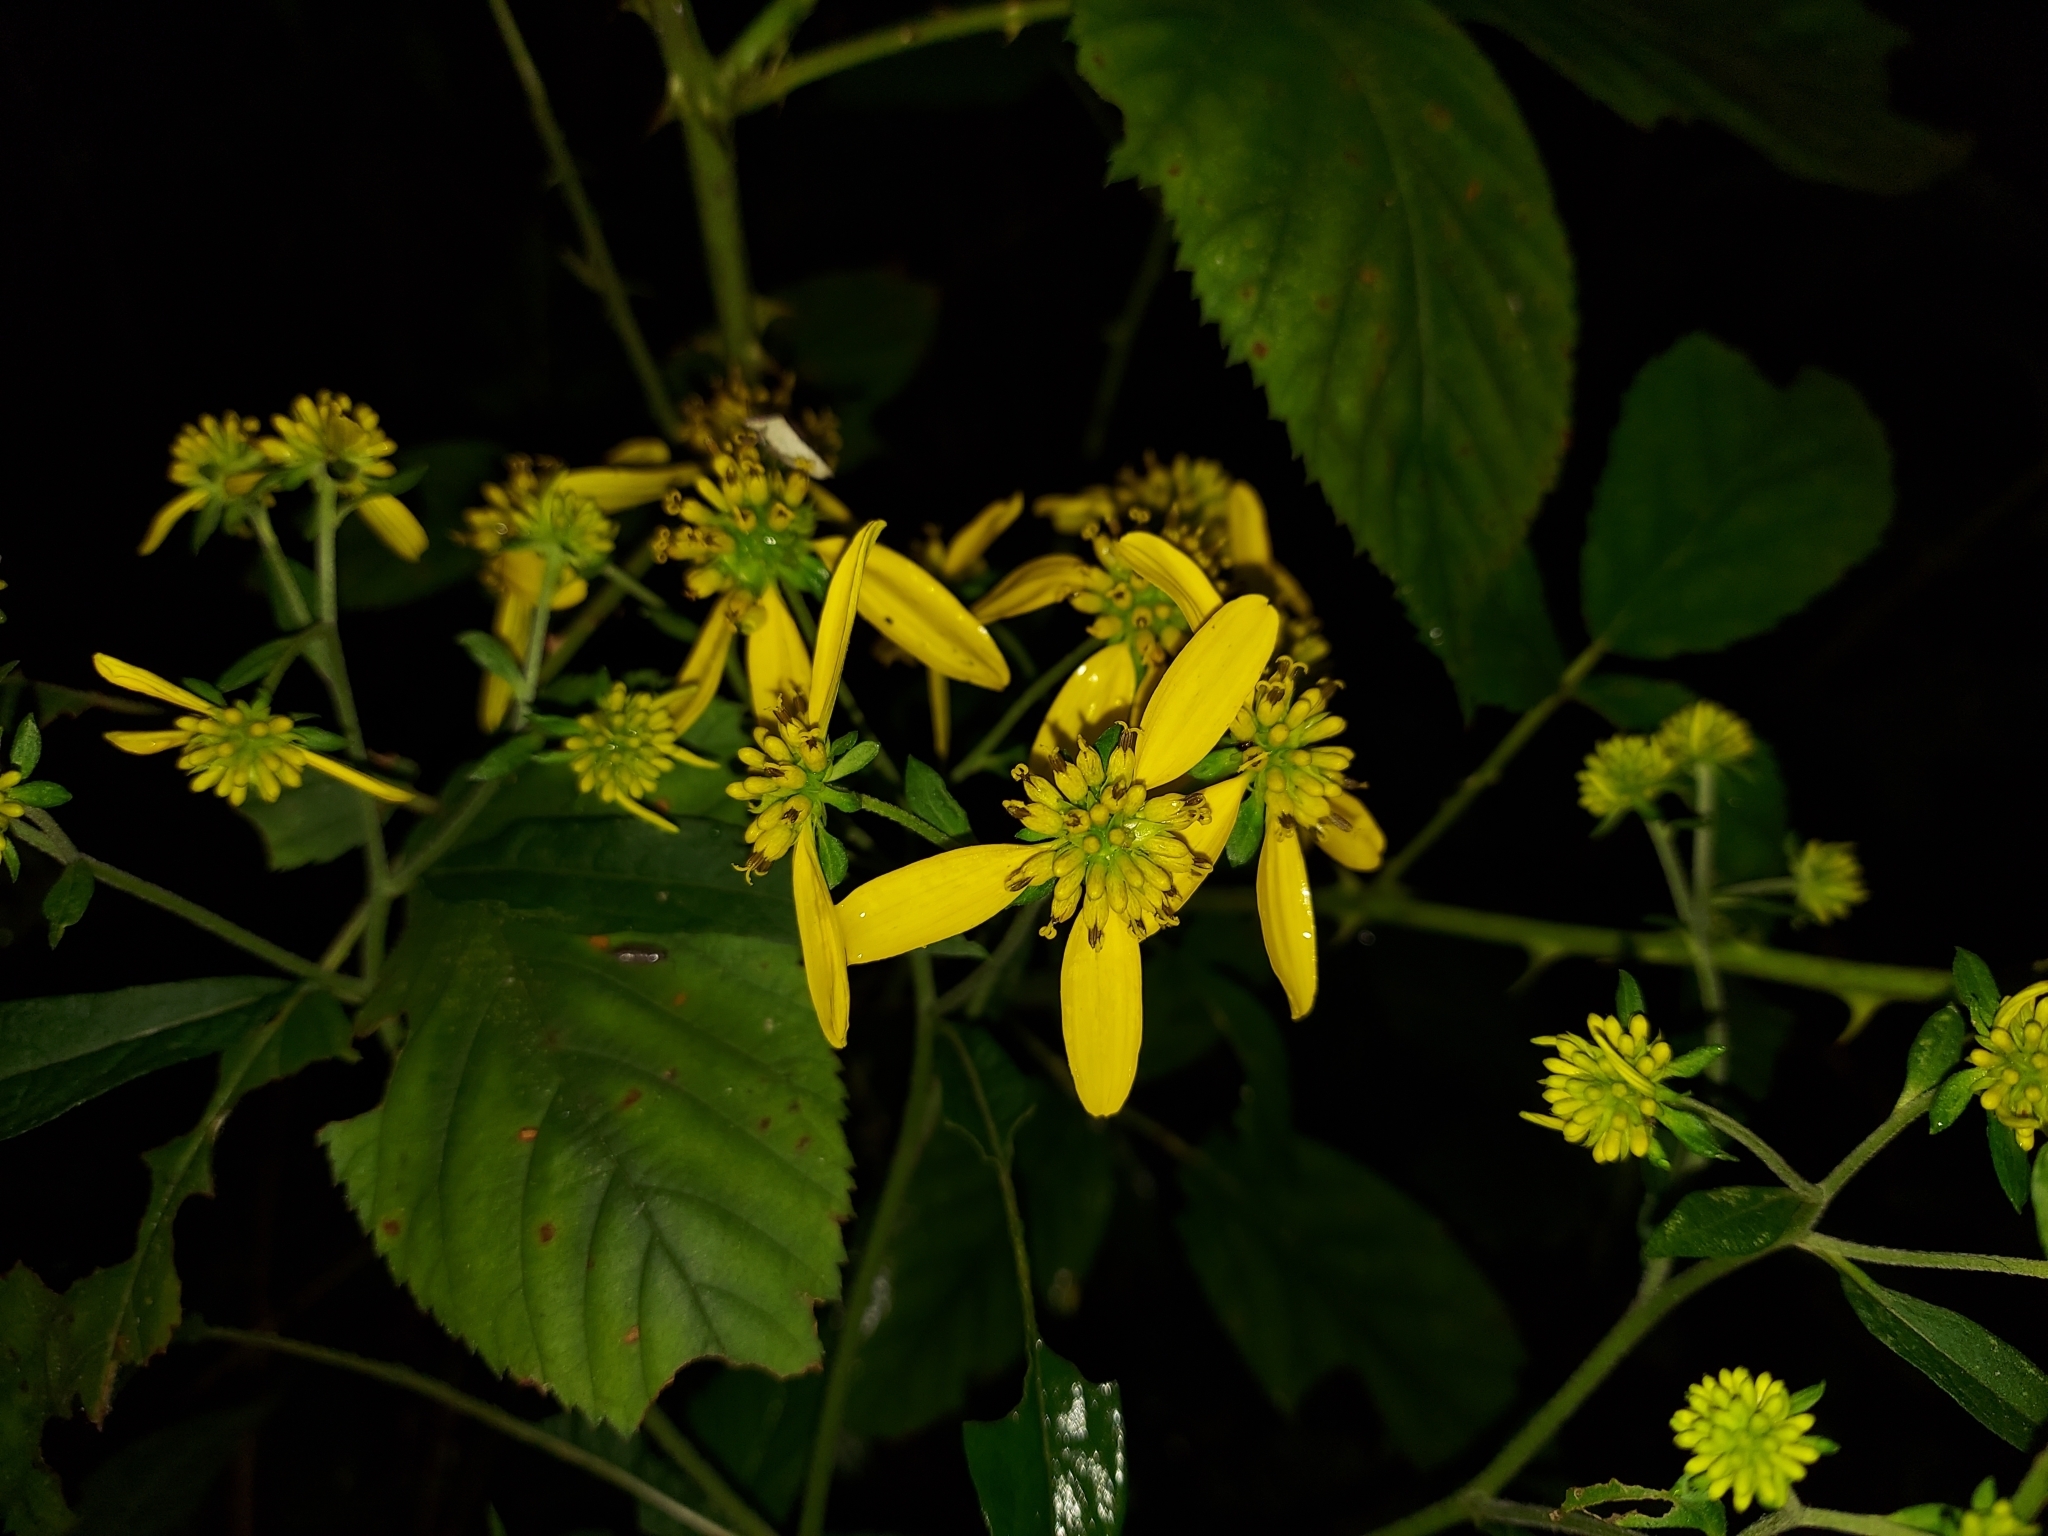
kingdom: Plantae
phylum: Tracheophyta
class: Magnoliopsida
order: Asterales
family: Asteraceae
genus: Verbesina
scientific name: Verbesina alternifolia
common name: Wingstem
